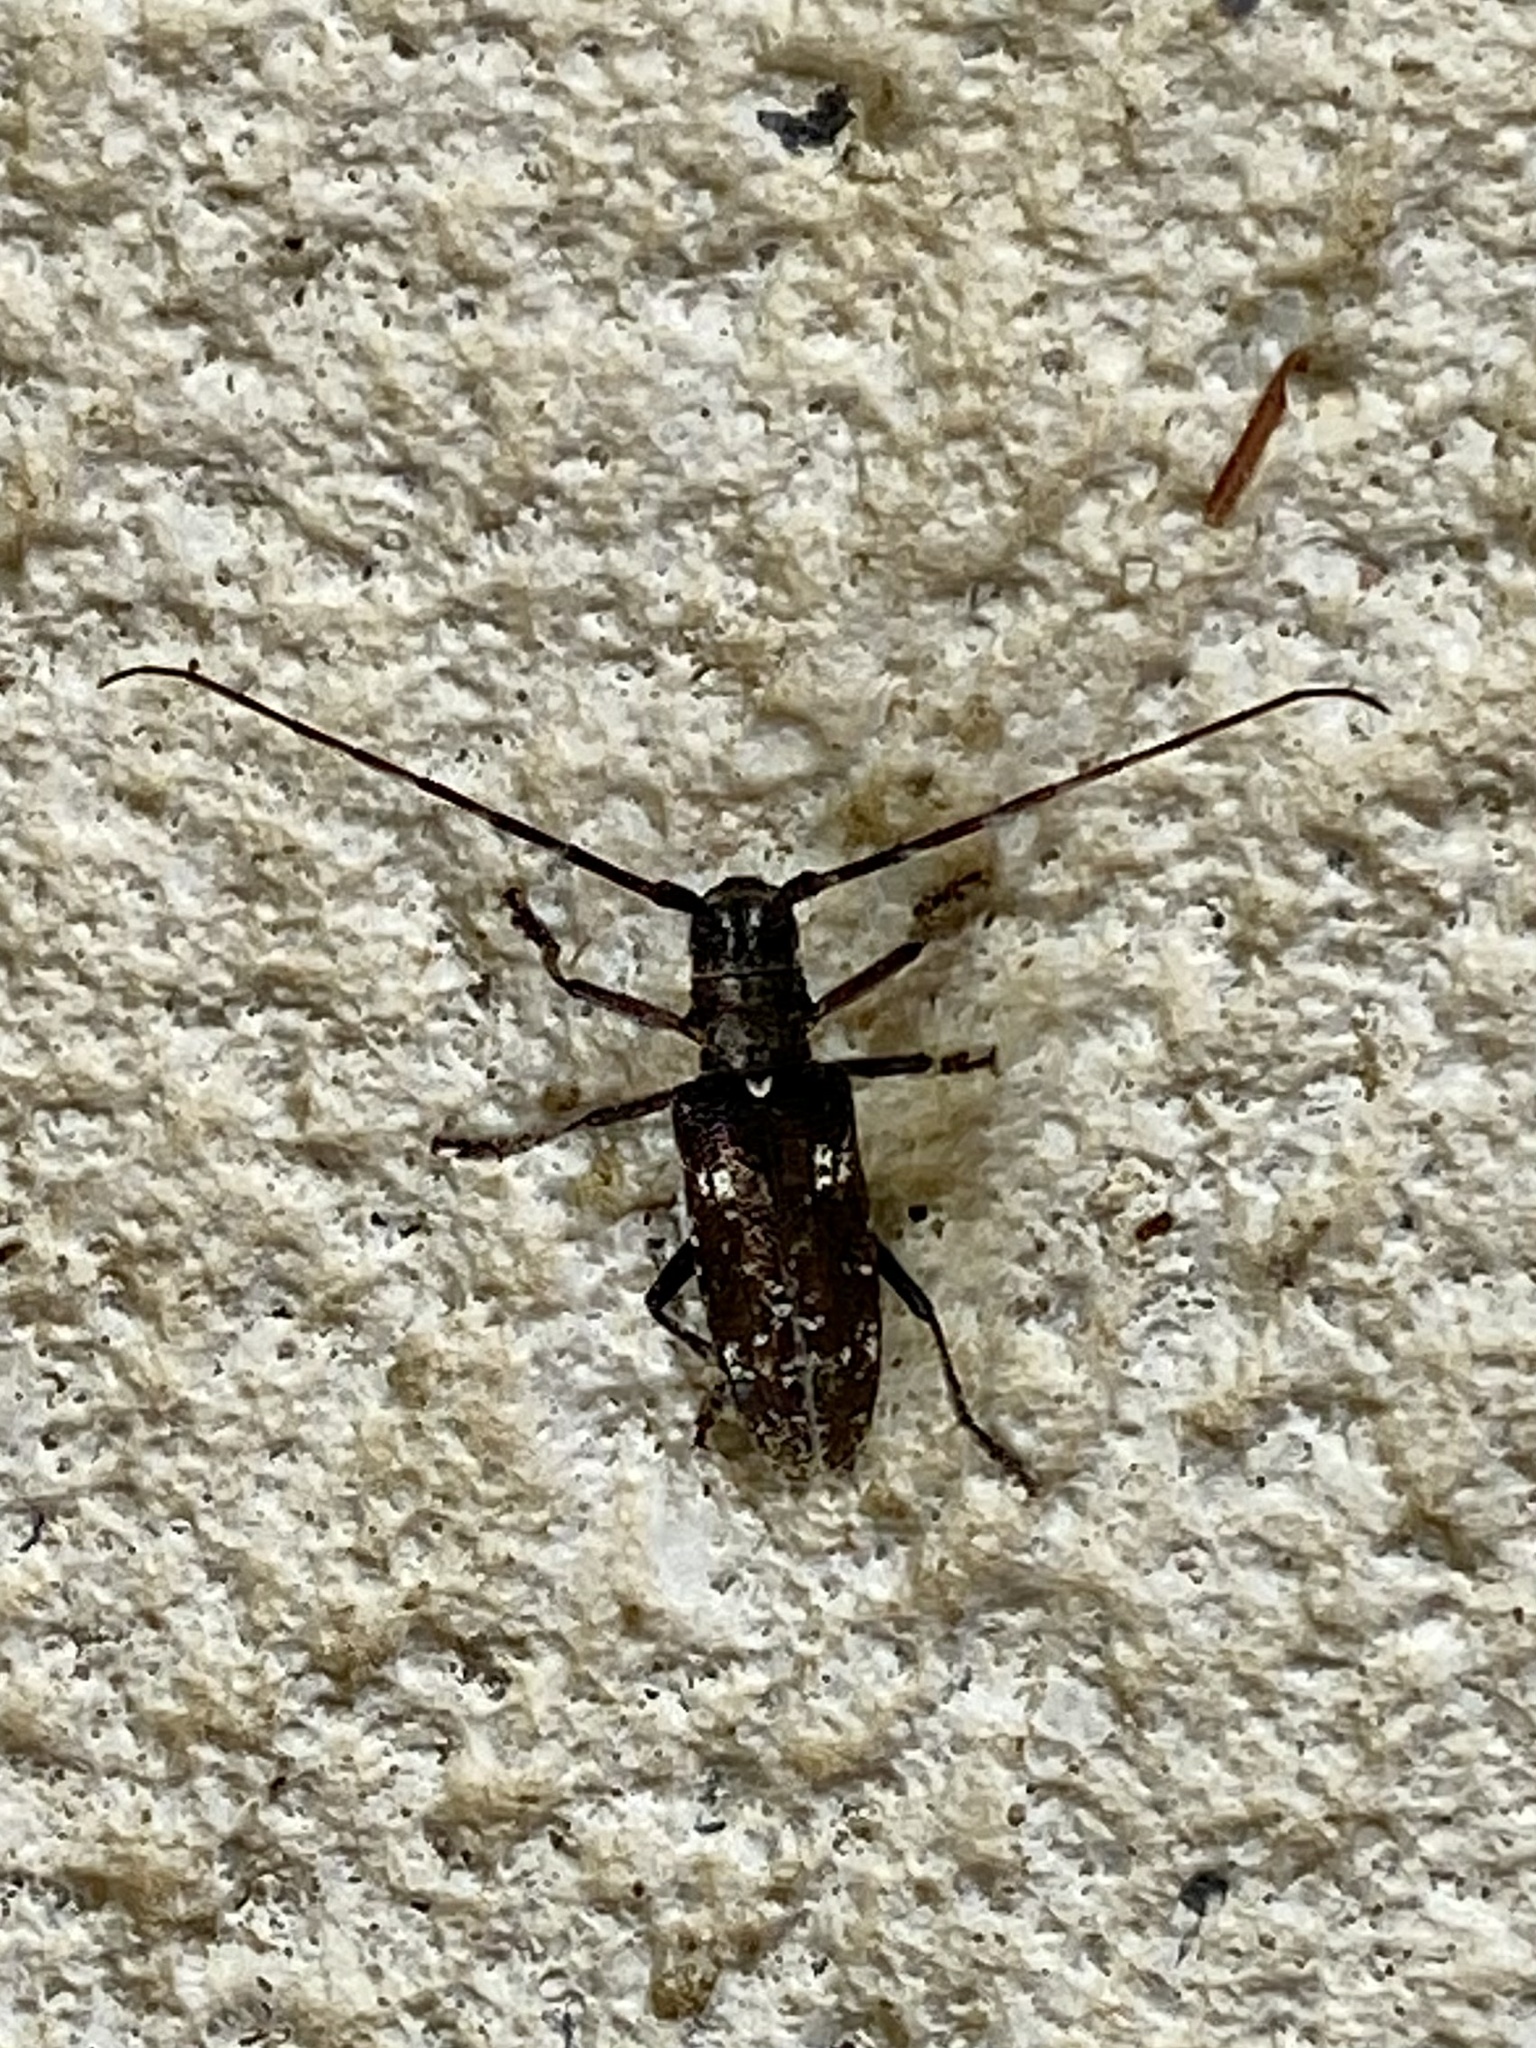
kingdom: Animalia
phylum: Arthropoda
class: Insecta
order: Coleoptera
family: Cerambycidae
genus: Monochamus
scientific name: Monochamus scutellatus
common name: White-spotted sawyer beetle
